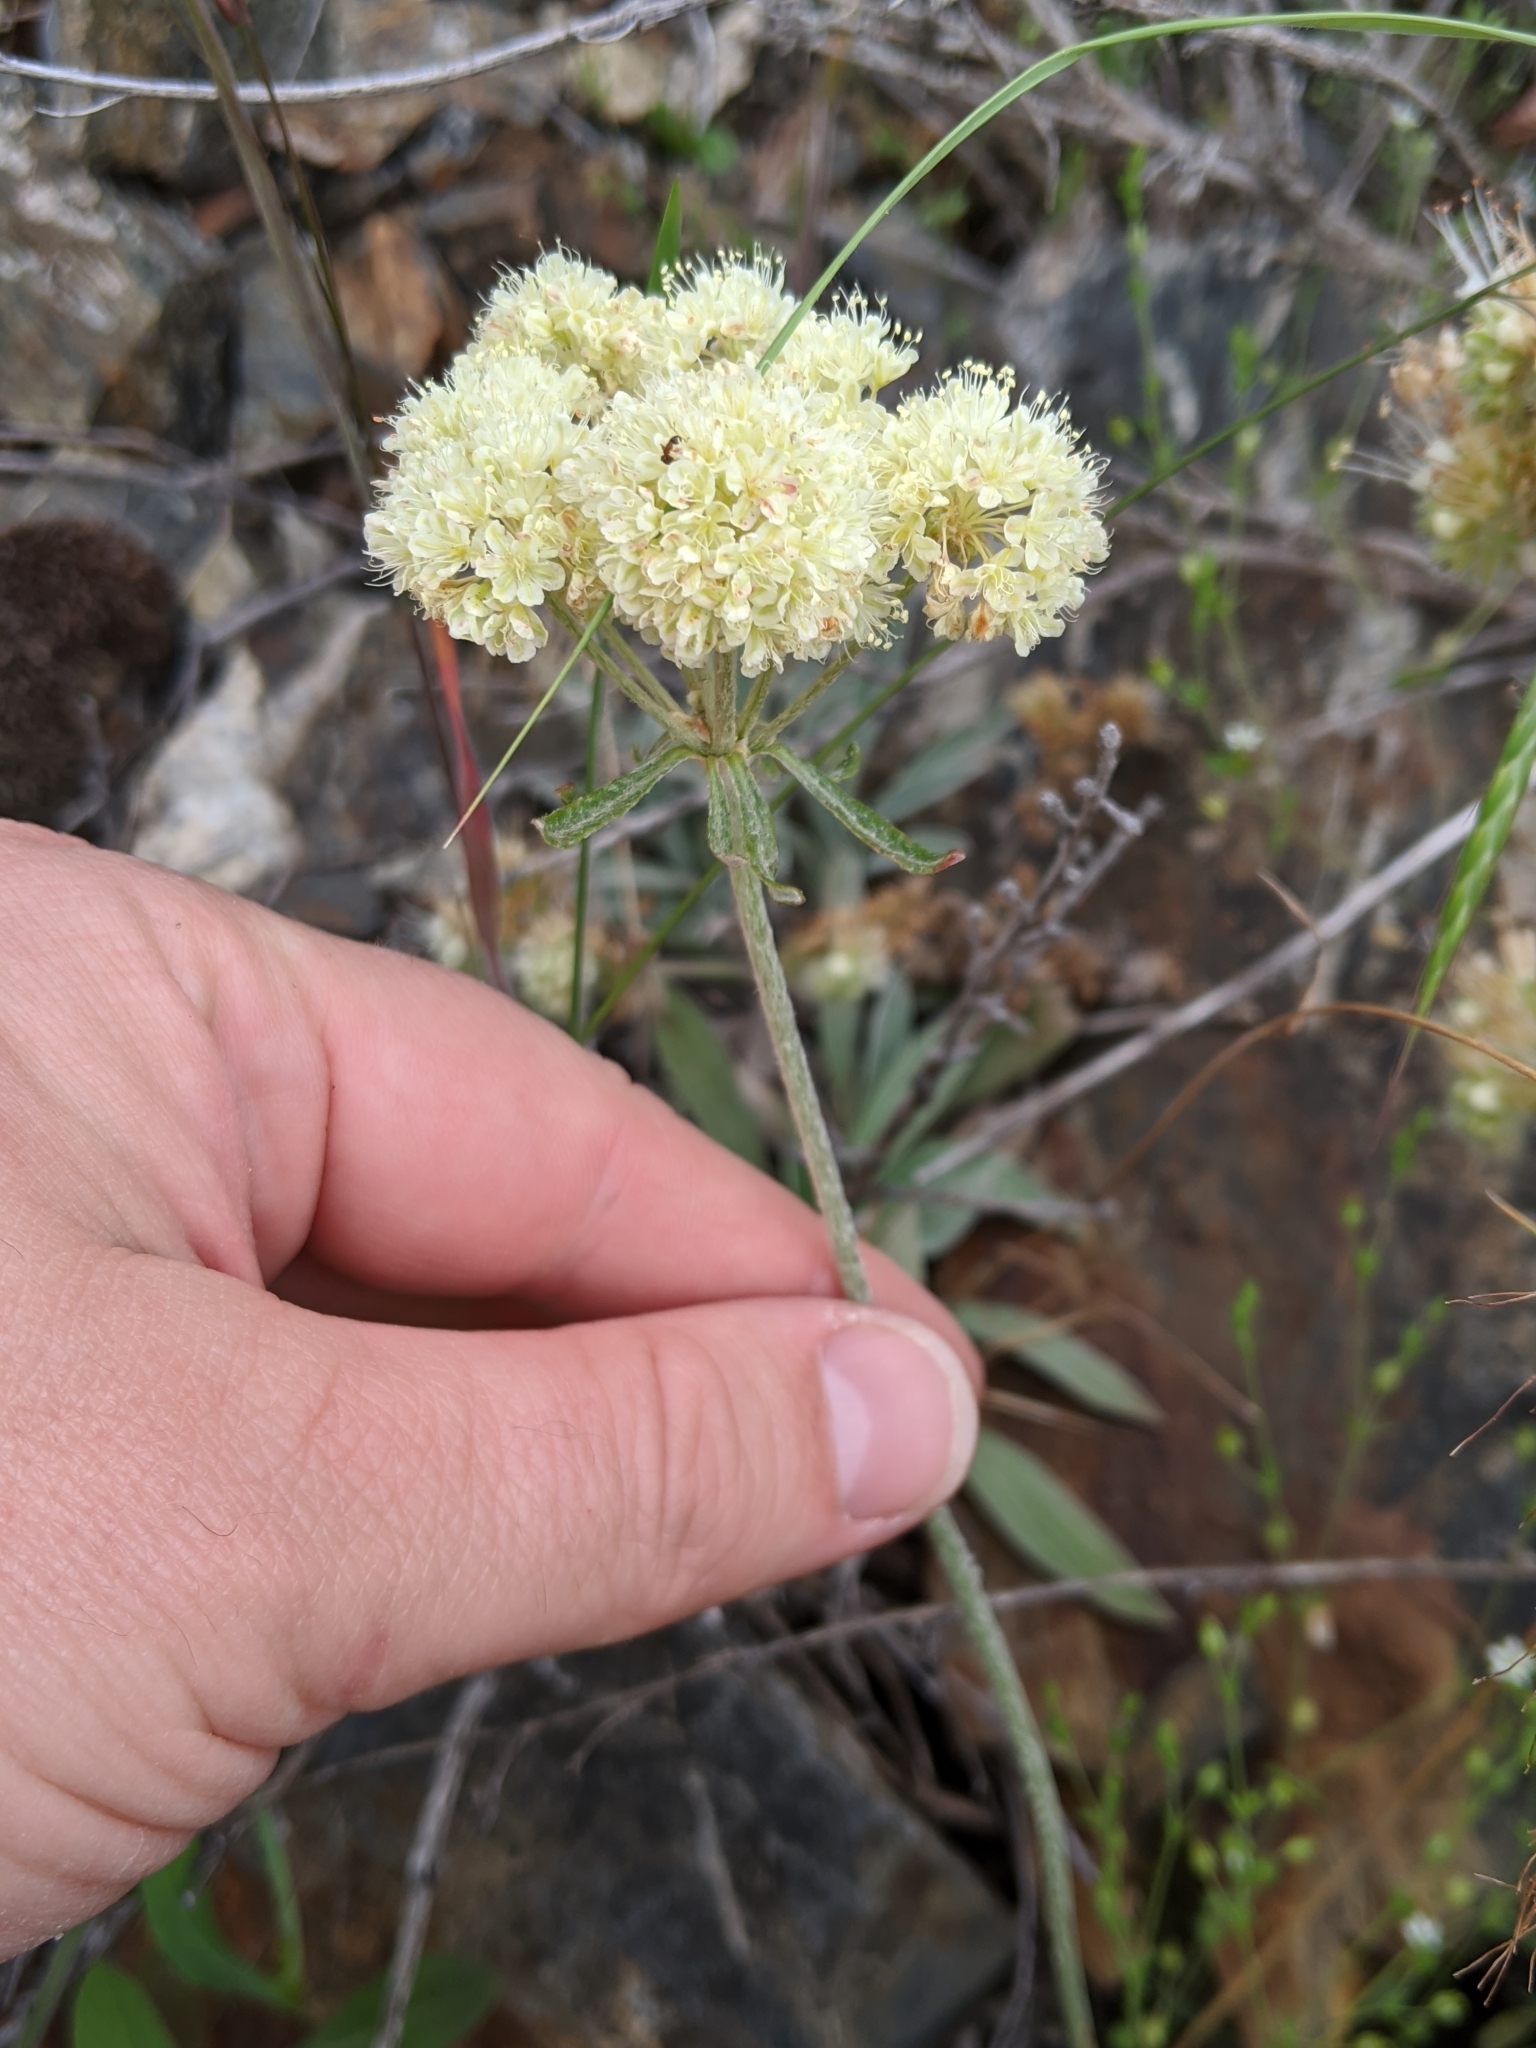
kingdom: Plantae
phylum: Tracheophyta
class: Magnoliopsida
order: Caryophyllales
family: Polygonaceae
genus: Eriogonum
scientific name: Eriogonum heracleoides
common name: Wyeth's buckwheat
